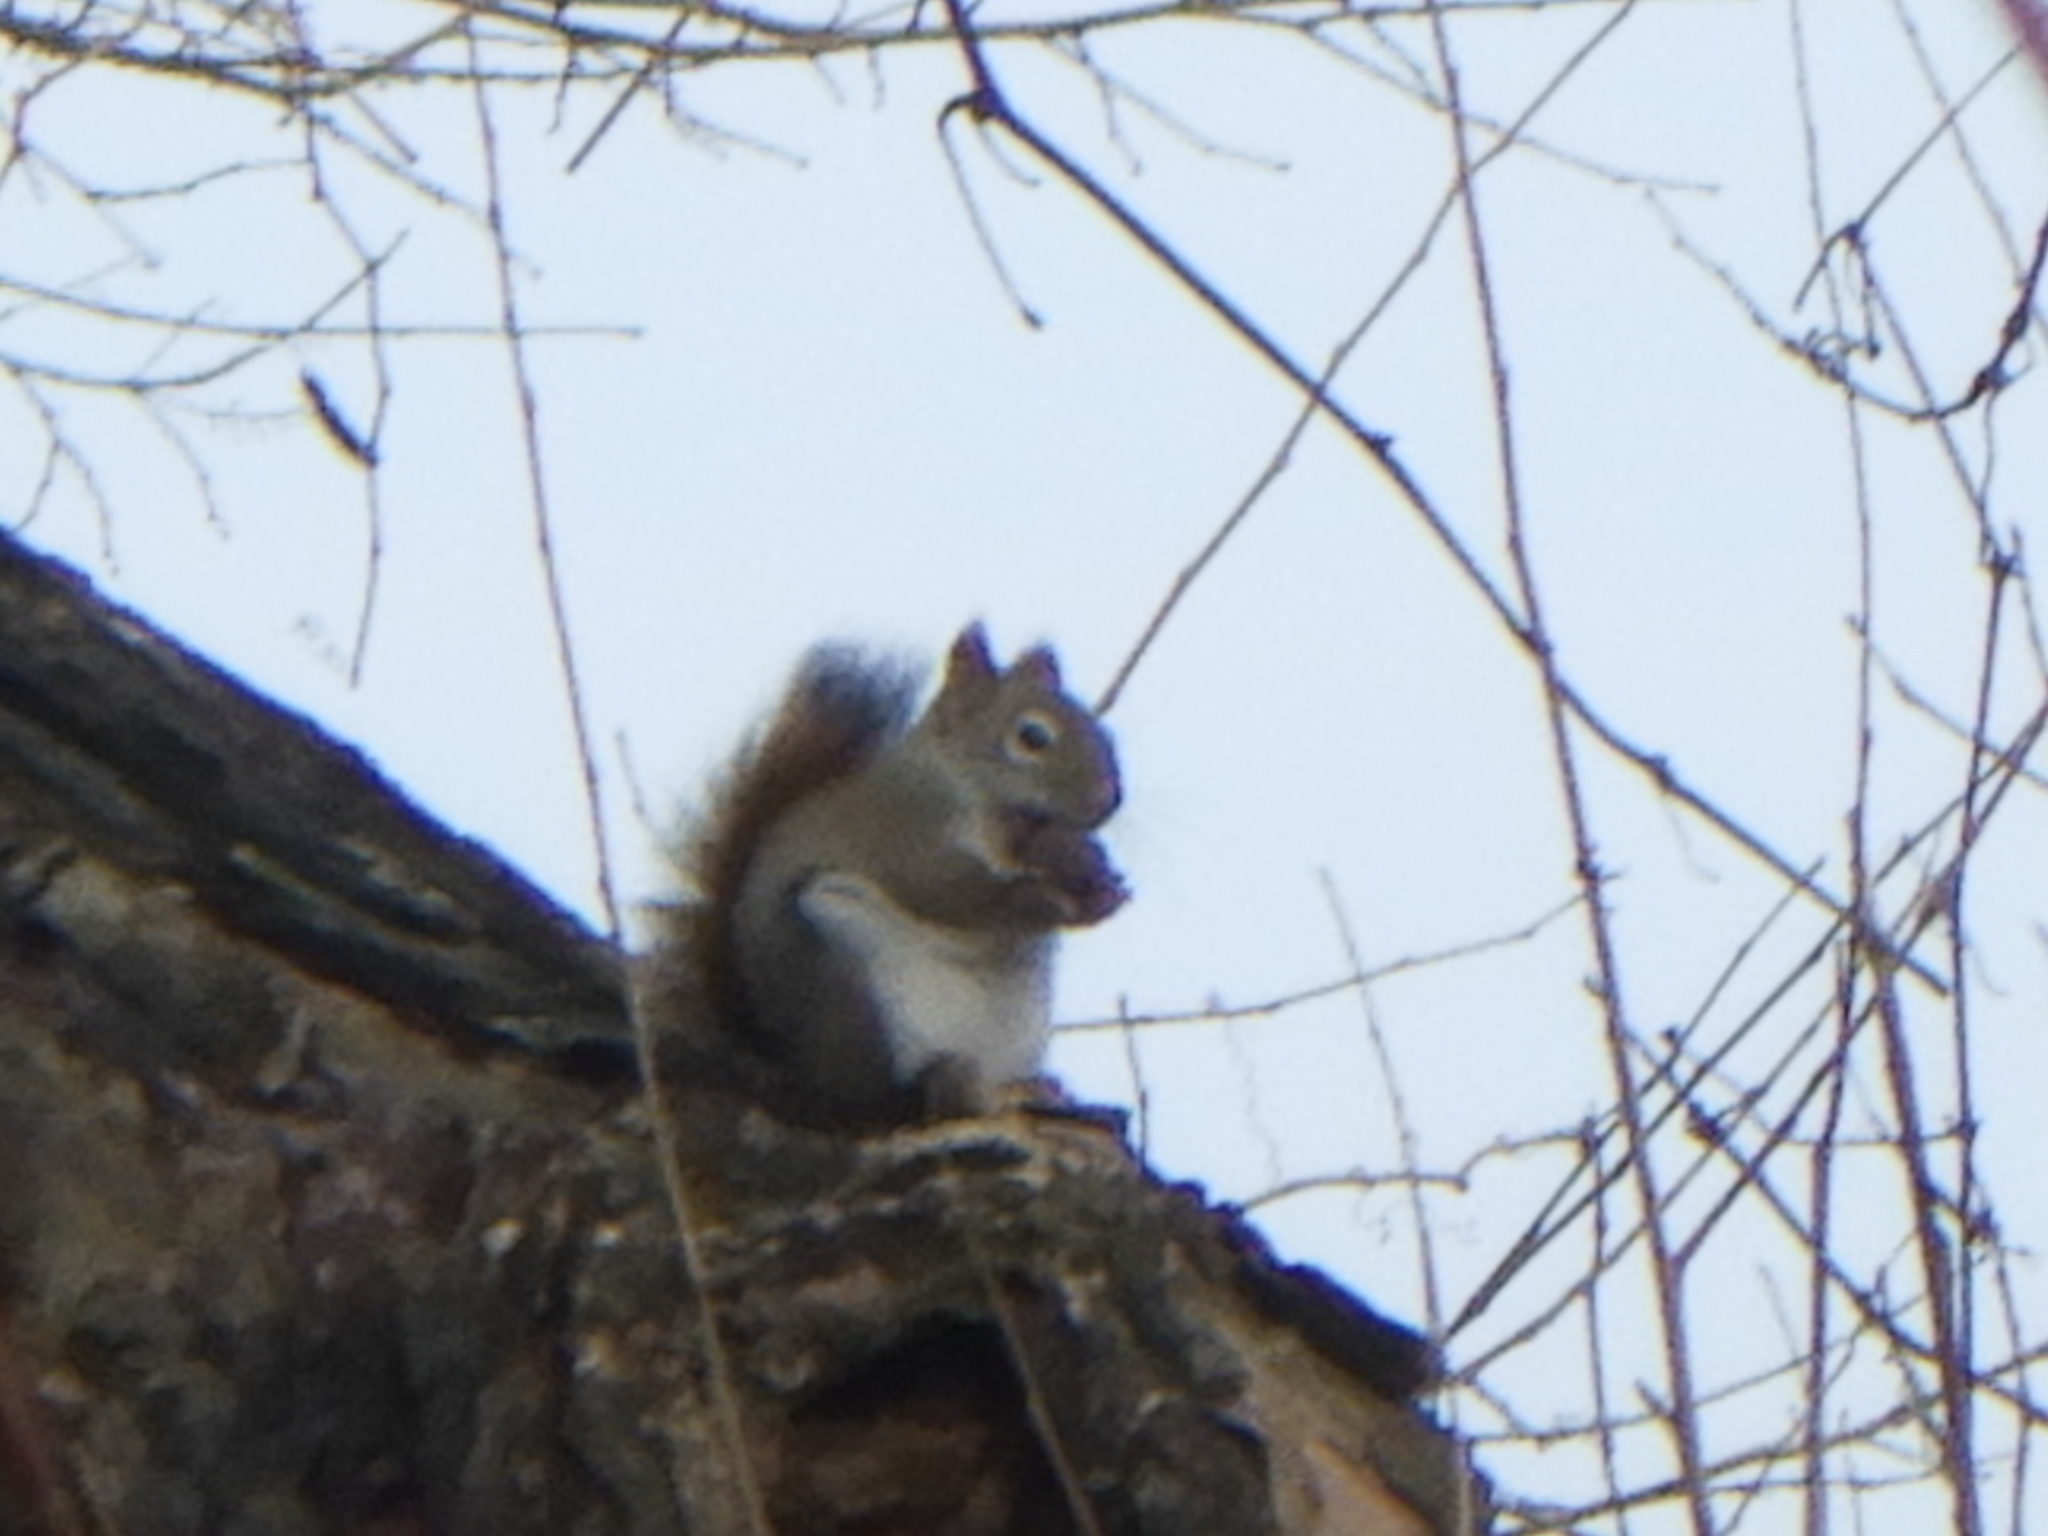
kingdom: Animalia
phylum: Chordata
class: Mammalia
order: Rodentia
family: Sciuridae
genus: Tamiasciurus
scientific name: Tamiasciurus hudsonicus
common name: Red squirrel
